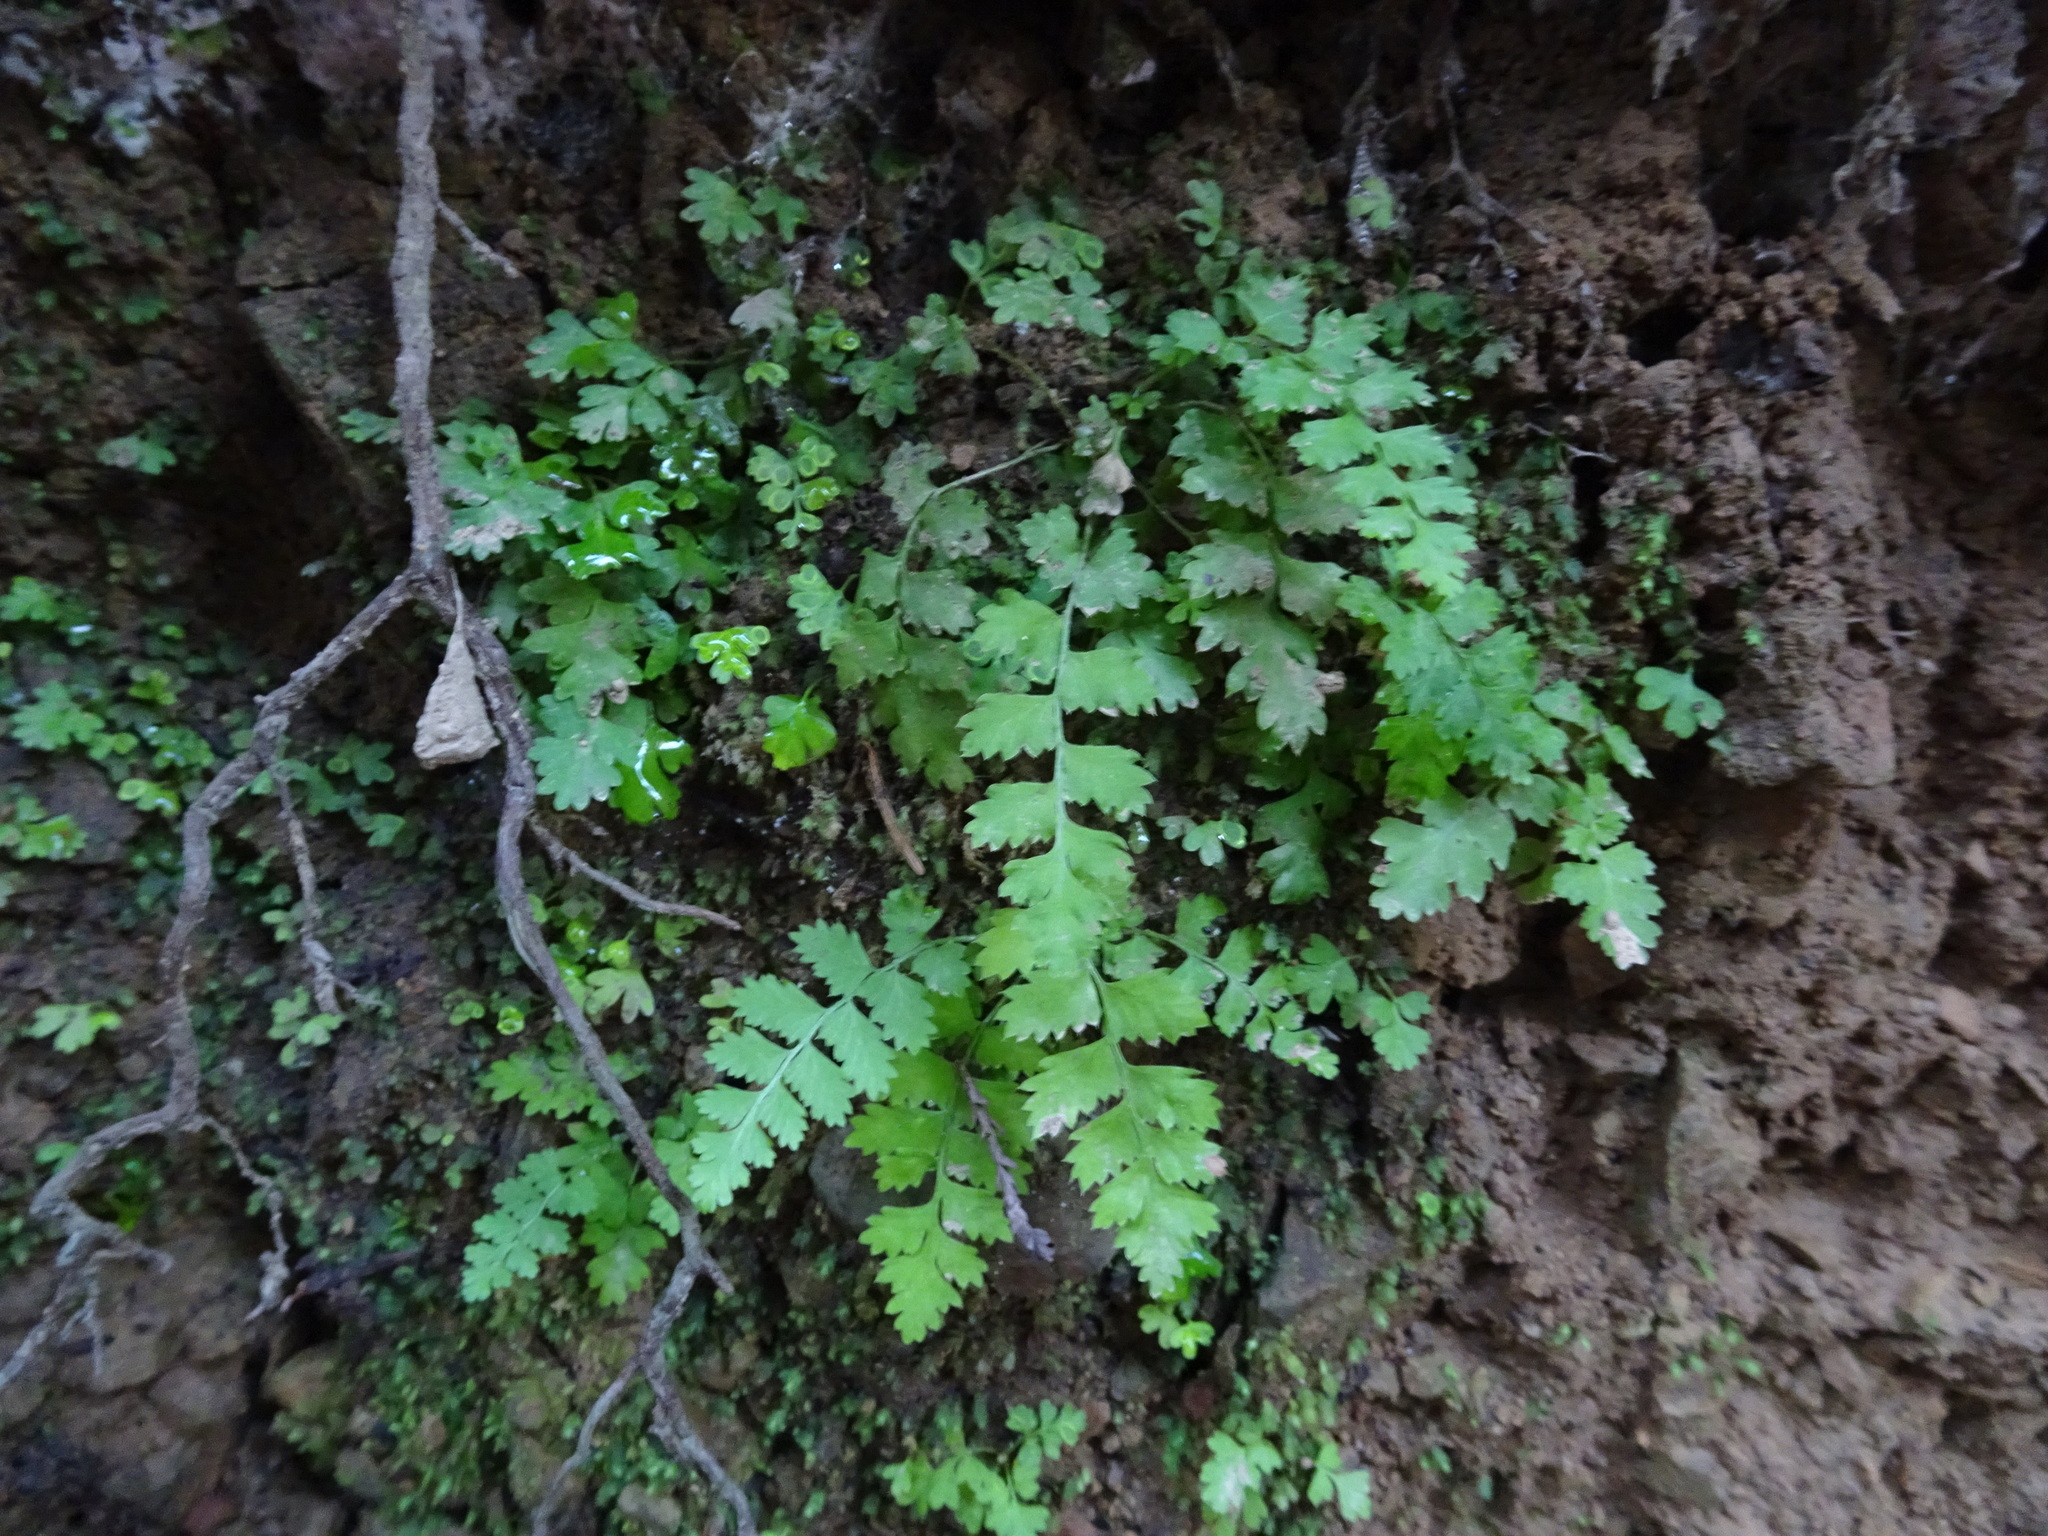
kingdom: Plantae
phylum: Tracheophyta
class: Polypodiopsida
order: Polypodiales
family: Dryopteridaceae
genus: Polystichum
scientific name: Polystichum munitum
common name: Western sword-fern
